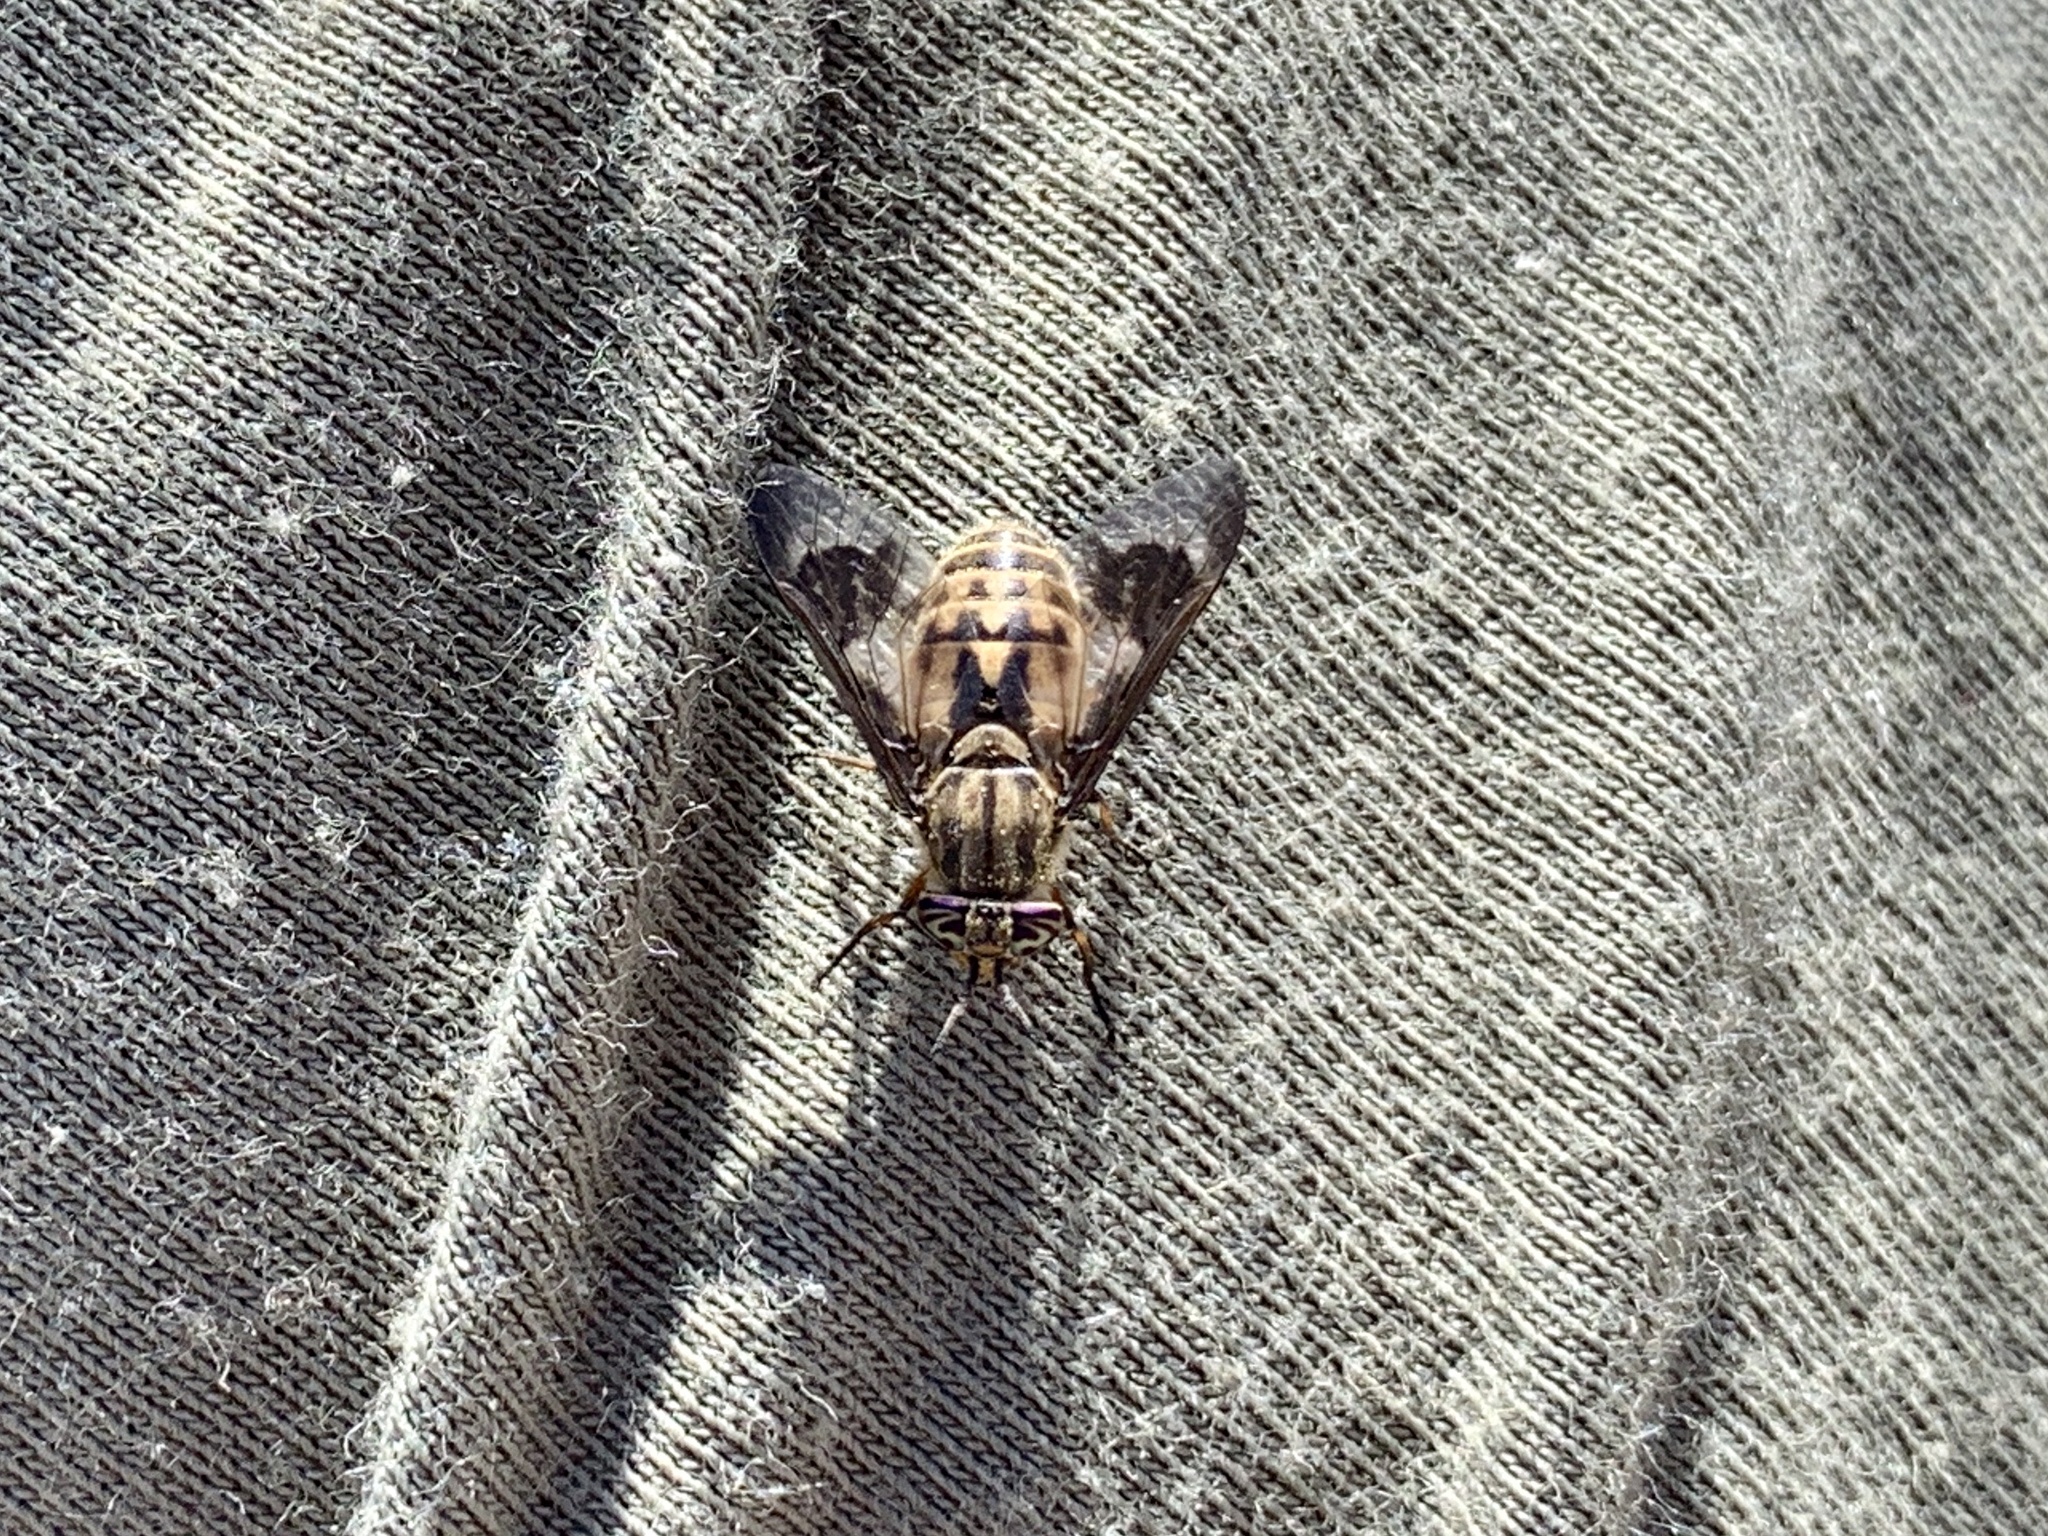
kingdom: Animalia
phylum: Arthropoda
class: Insecta
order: Diptera
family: Tabanidae
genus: Chrysops
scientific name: Chrysops coloradensis
